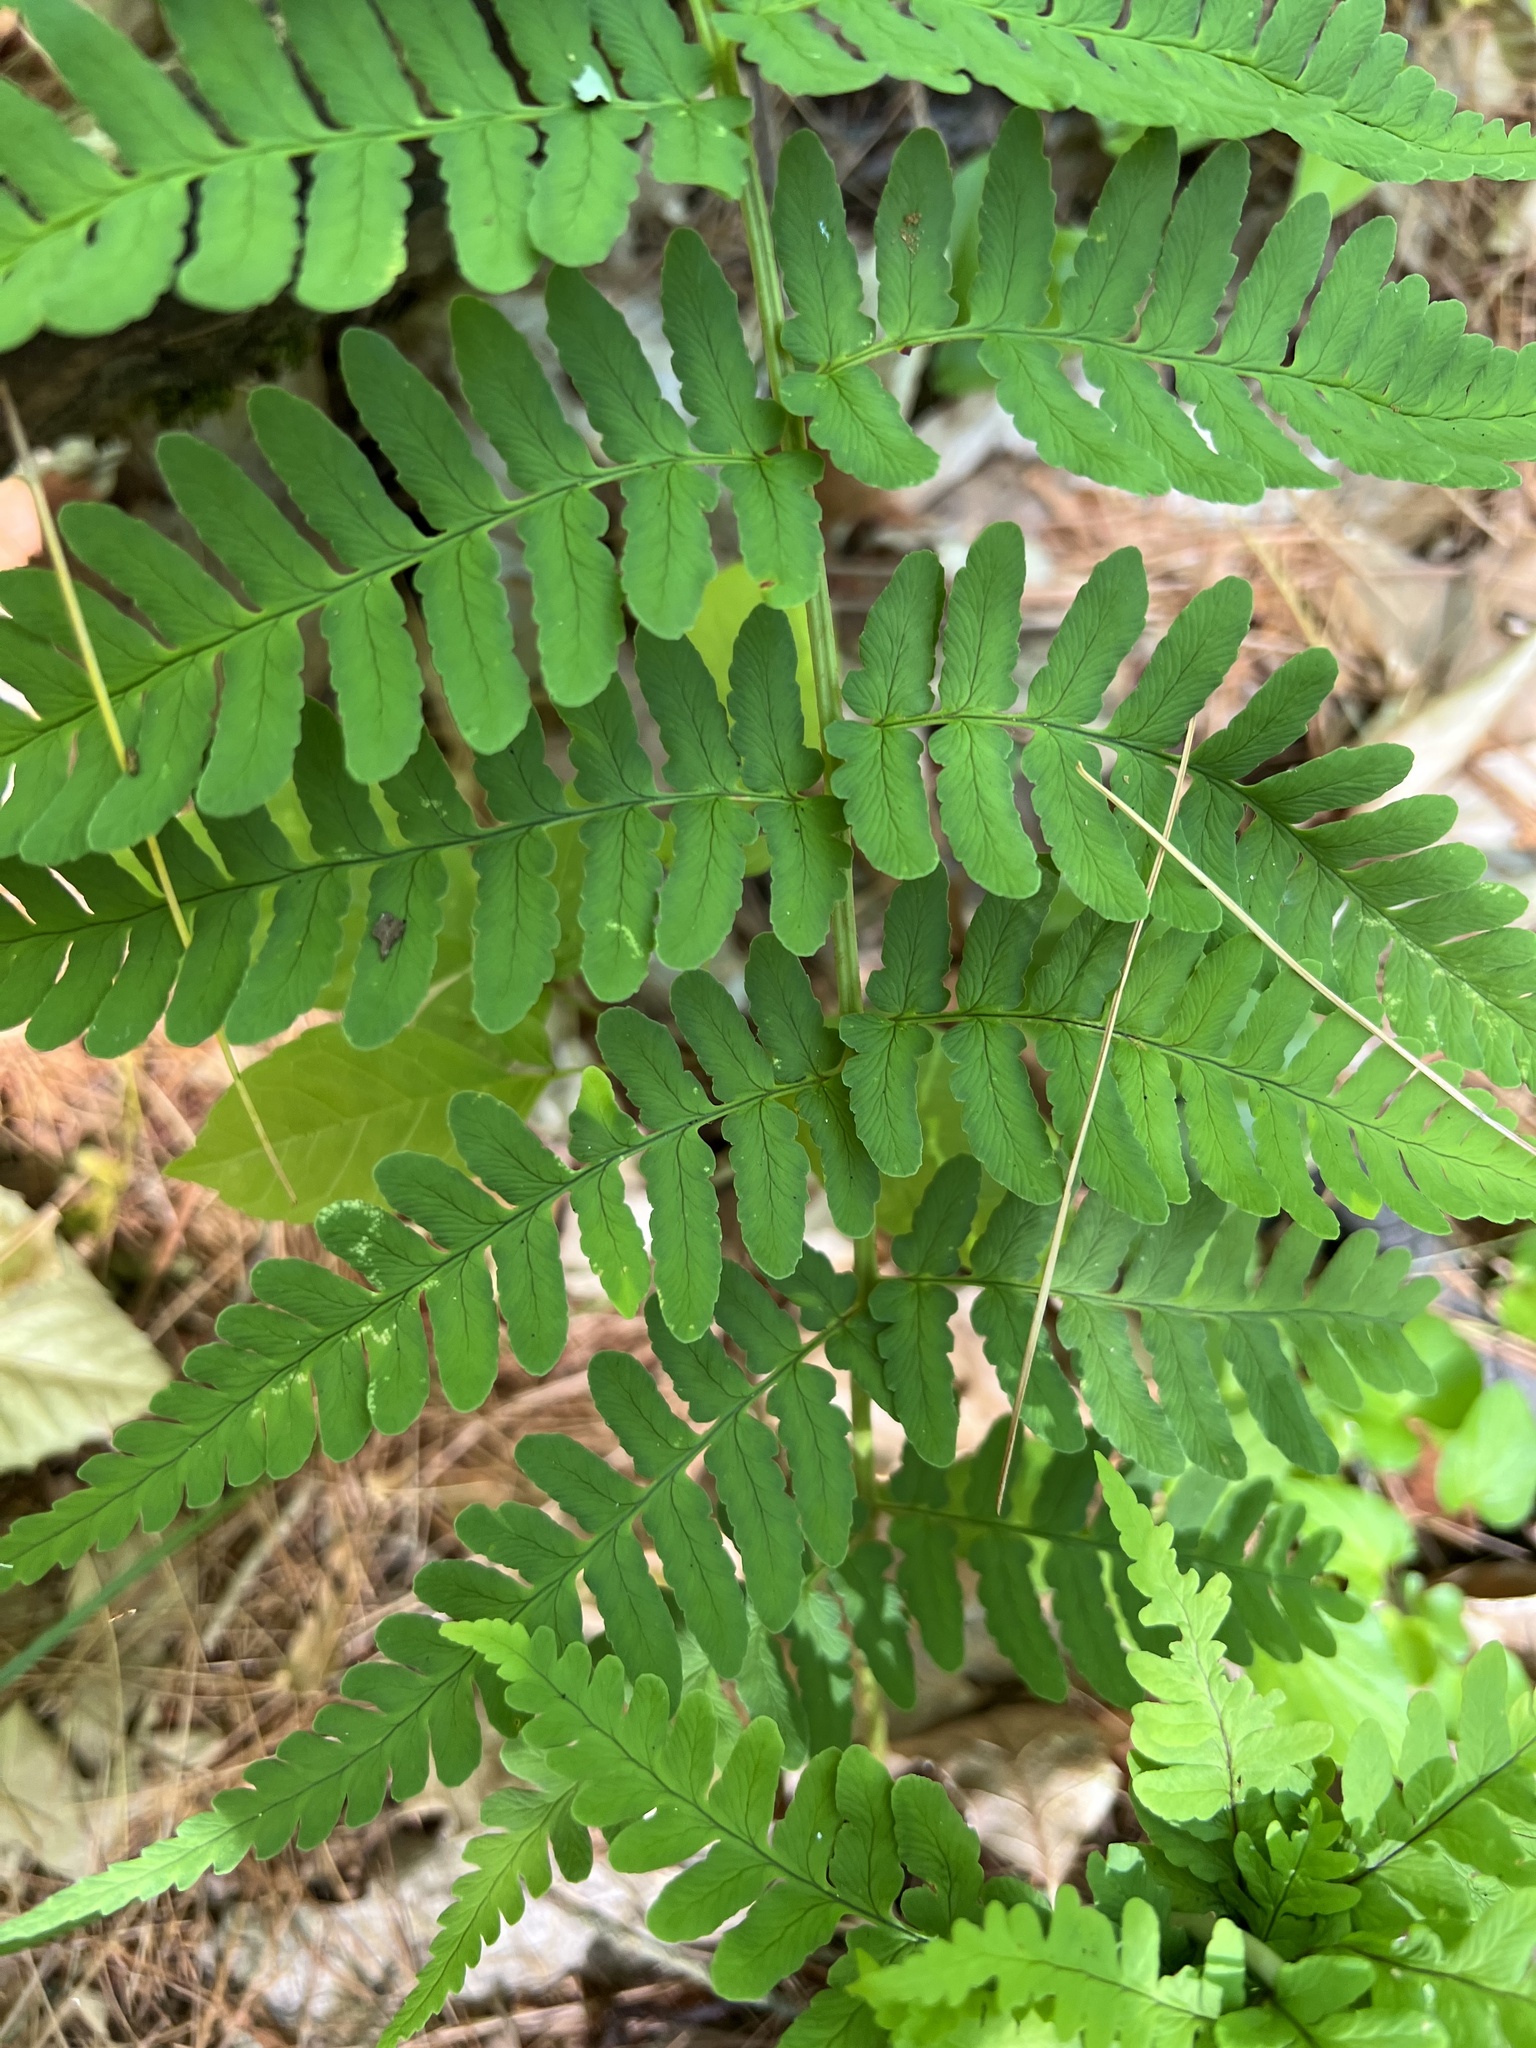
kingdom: Plantae
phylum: Tracheophyta
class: Polypodiopsida
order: Polypodiales
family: Dryopteridaceae
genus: Dryopteris
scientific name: Dryopteris marginalis
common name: Marginal wood fern
